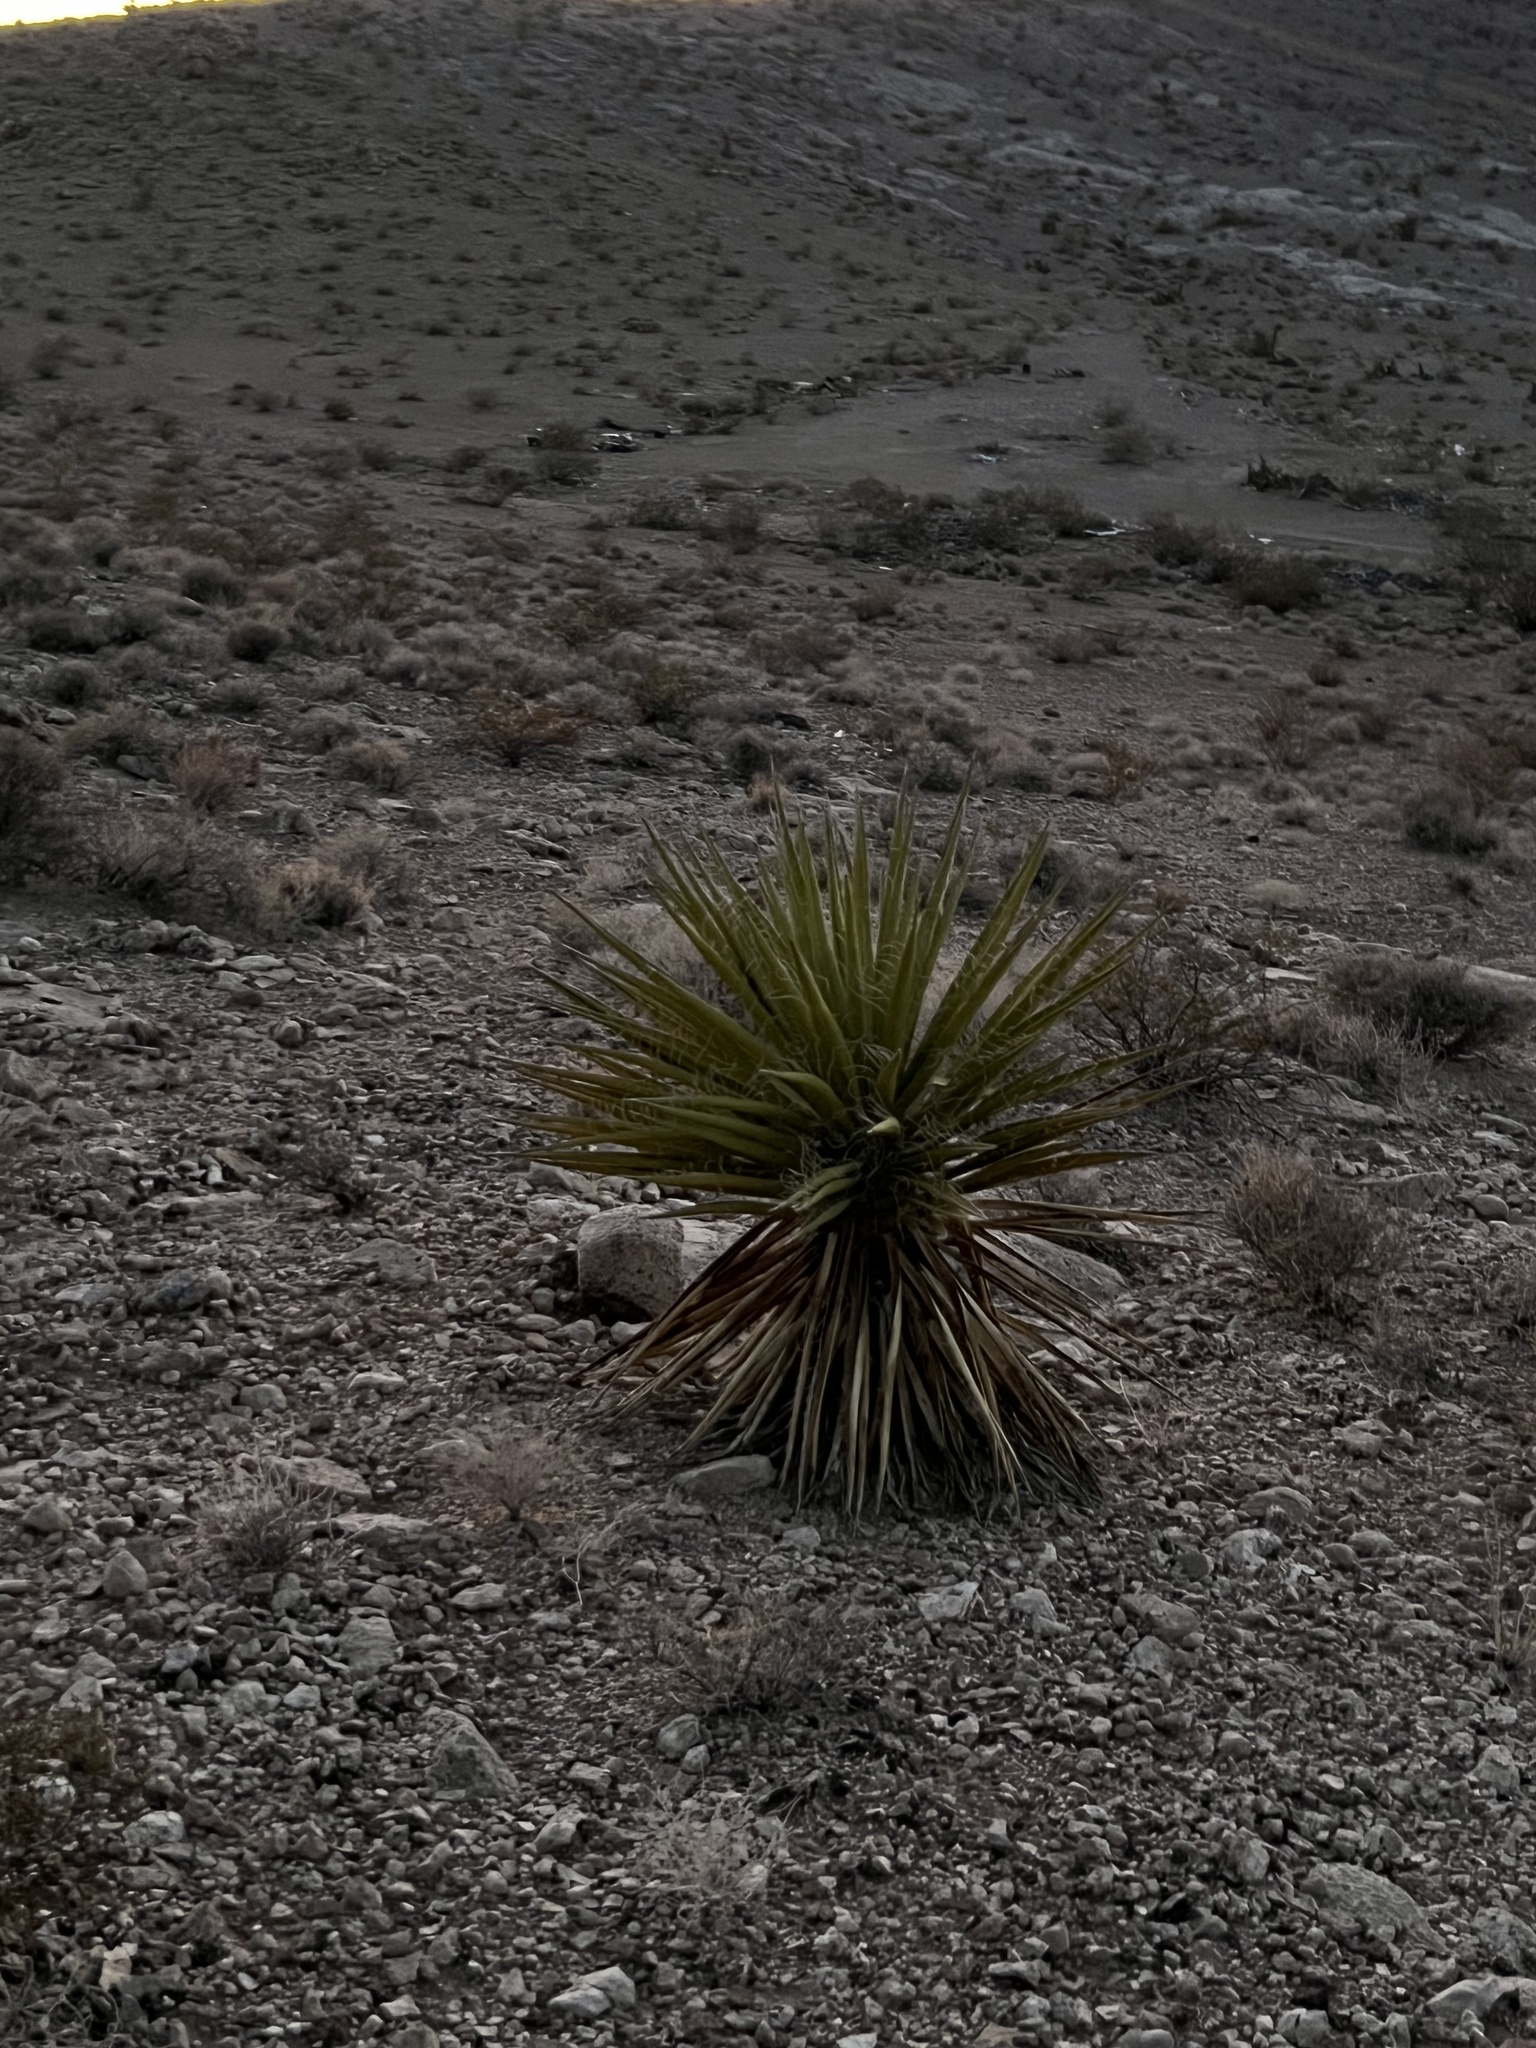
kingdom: Plantae
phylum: Tracheophyta
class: Liliopsida
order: Asparagales
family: Asparagaceae
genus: Yucca
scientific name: Yucca schidigera
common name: Mojave yucca
